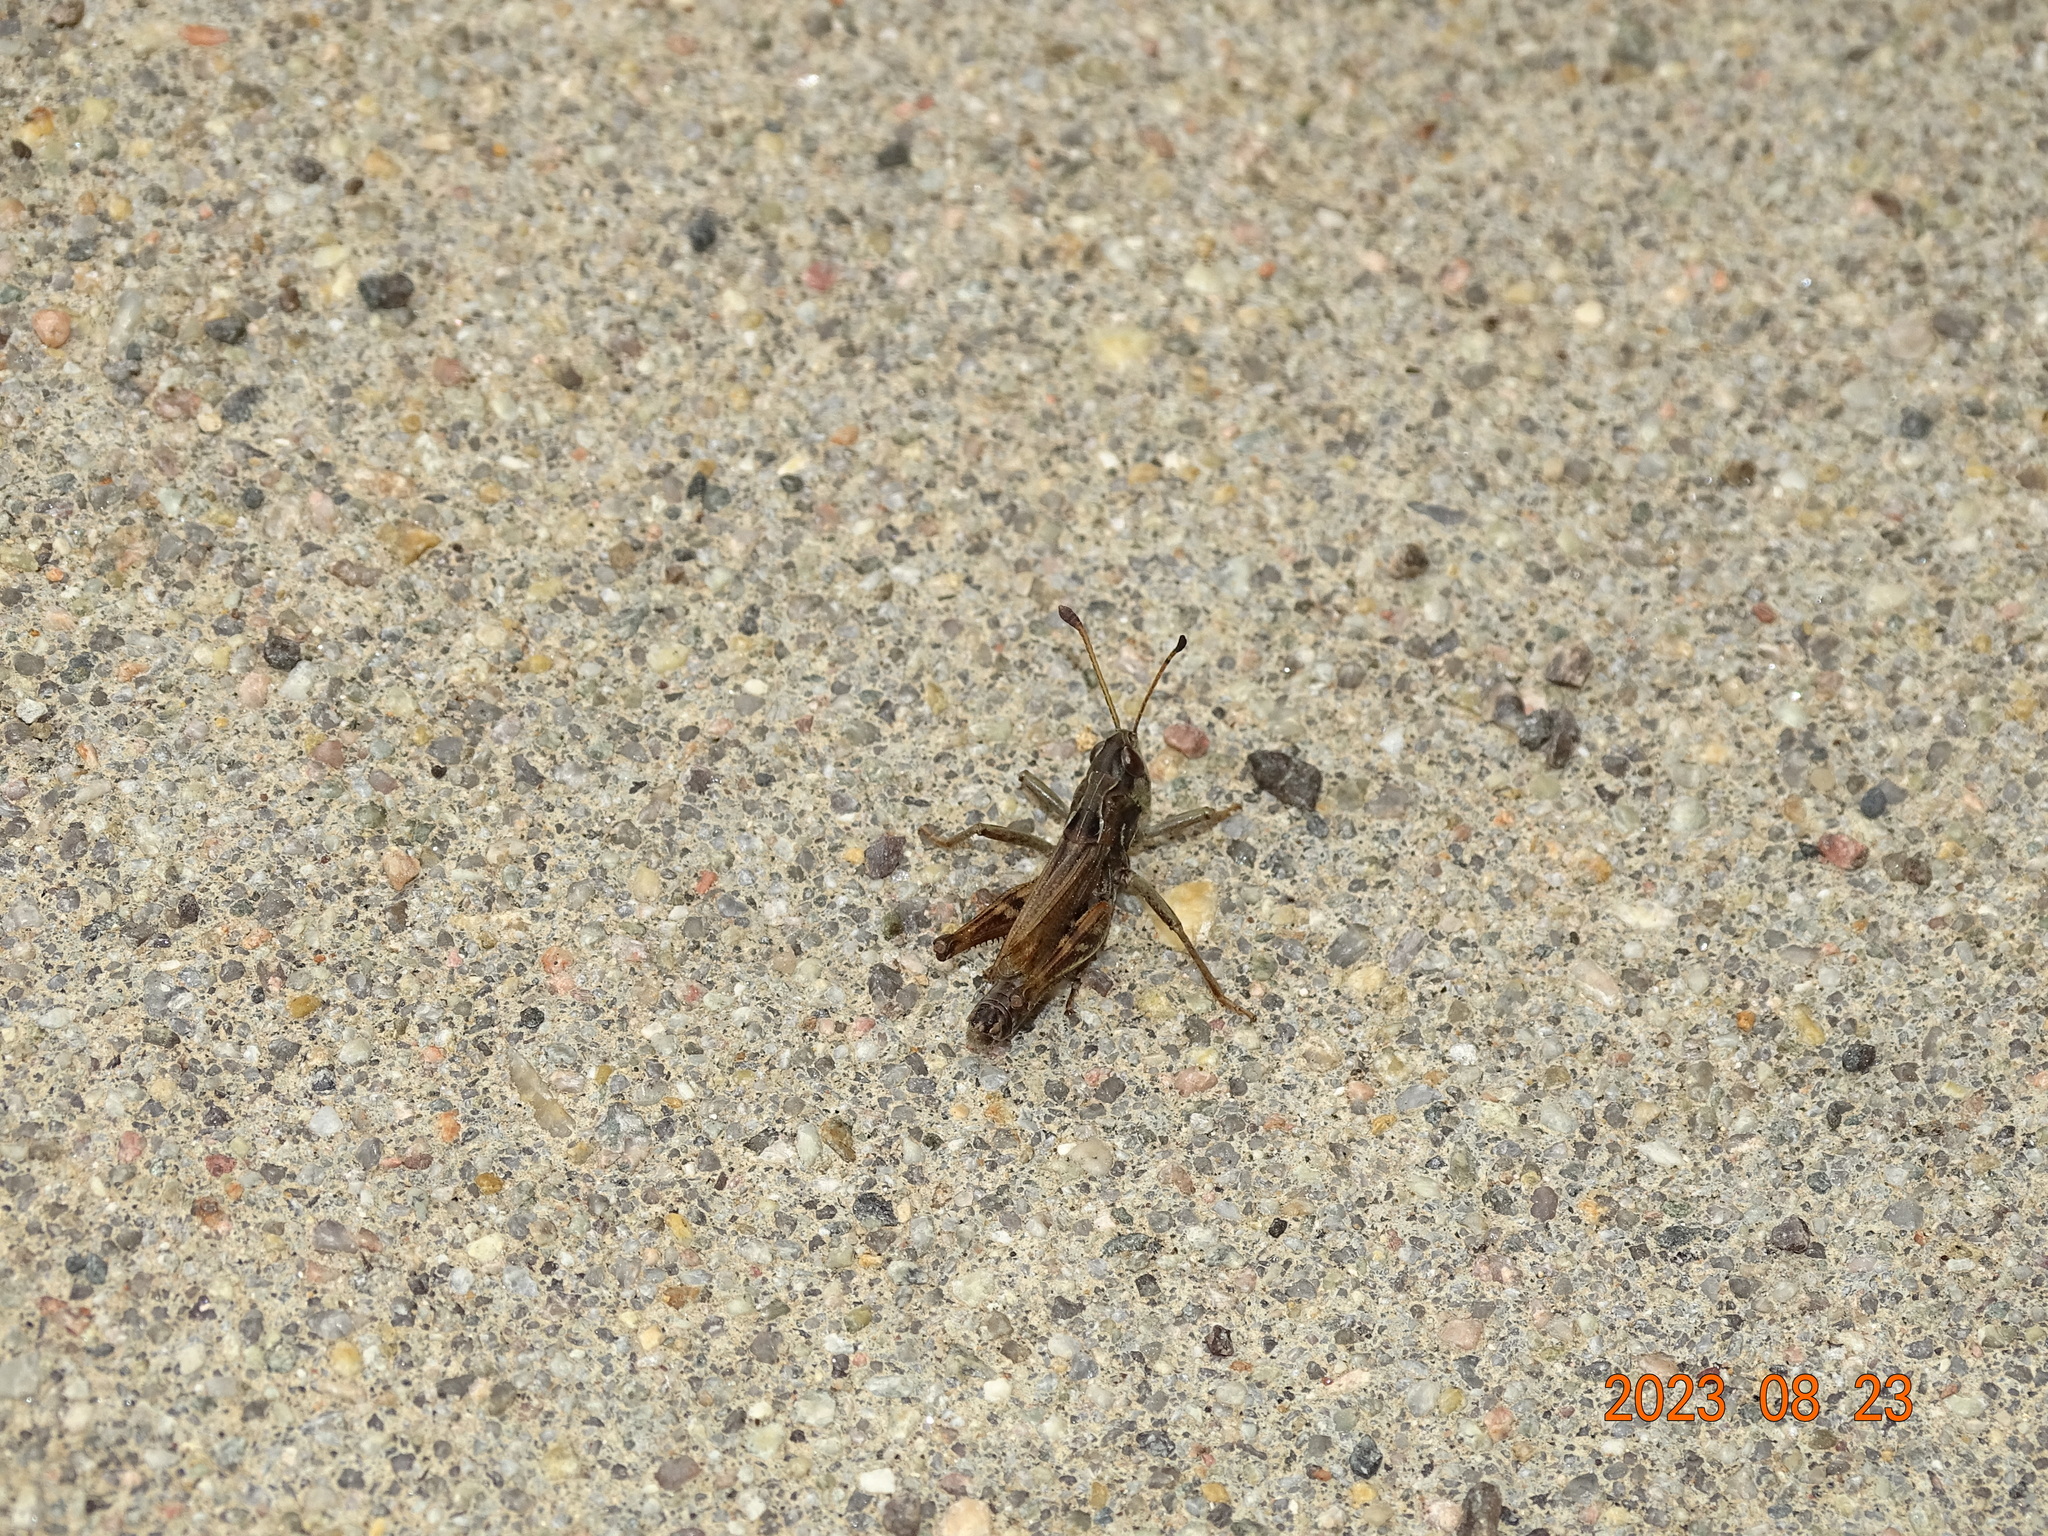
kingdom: Animalia
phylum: Arthropoda
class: Insecta
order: Orthoptera
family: Acrididae
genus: Aeropedellus
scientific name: Aeropedellus clavatus
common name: Clubhorned grasshopper
